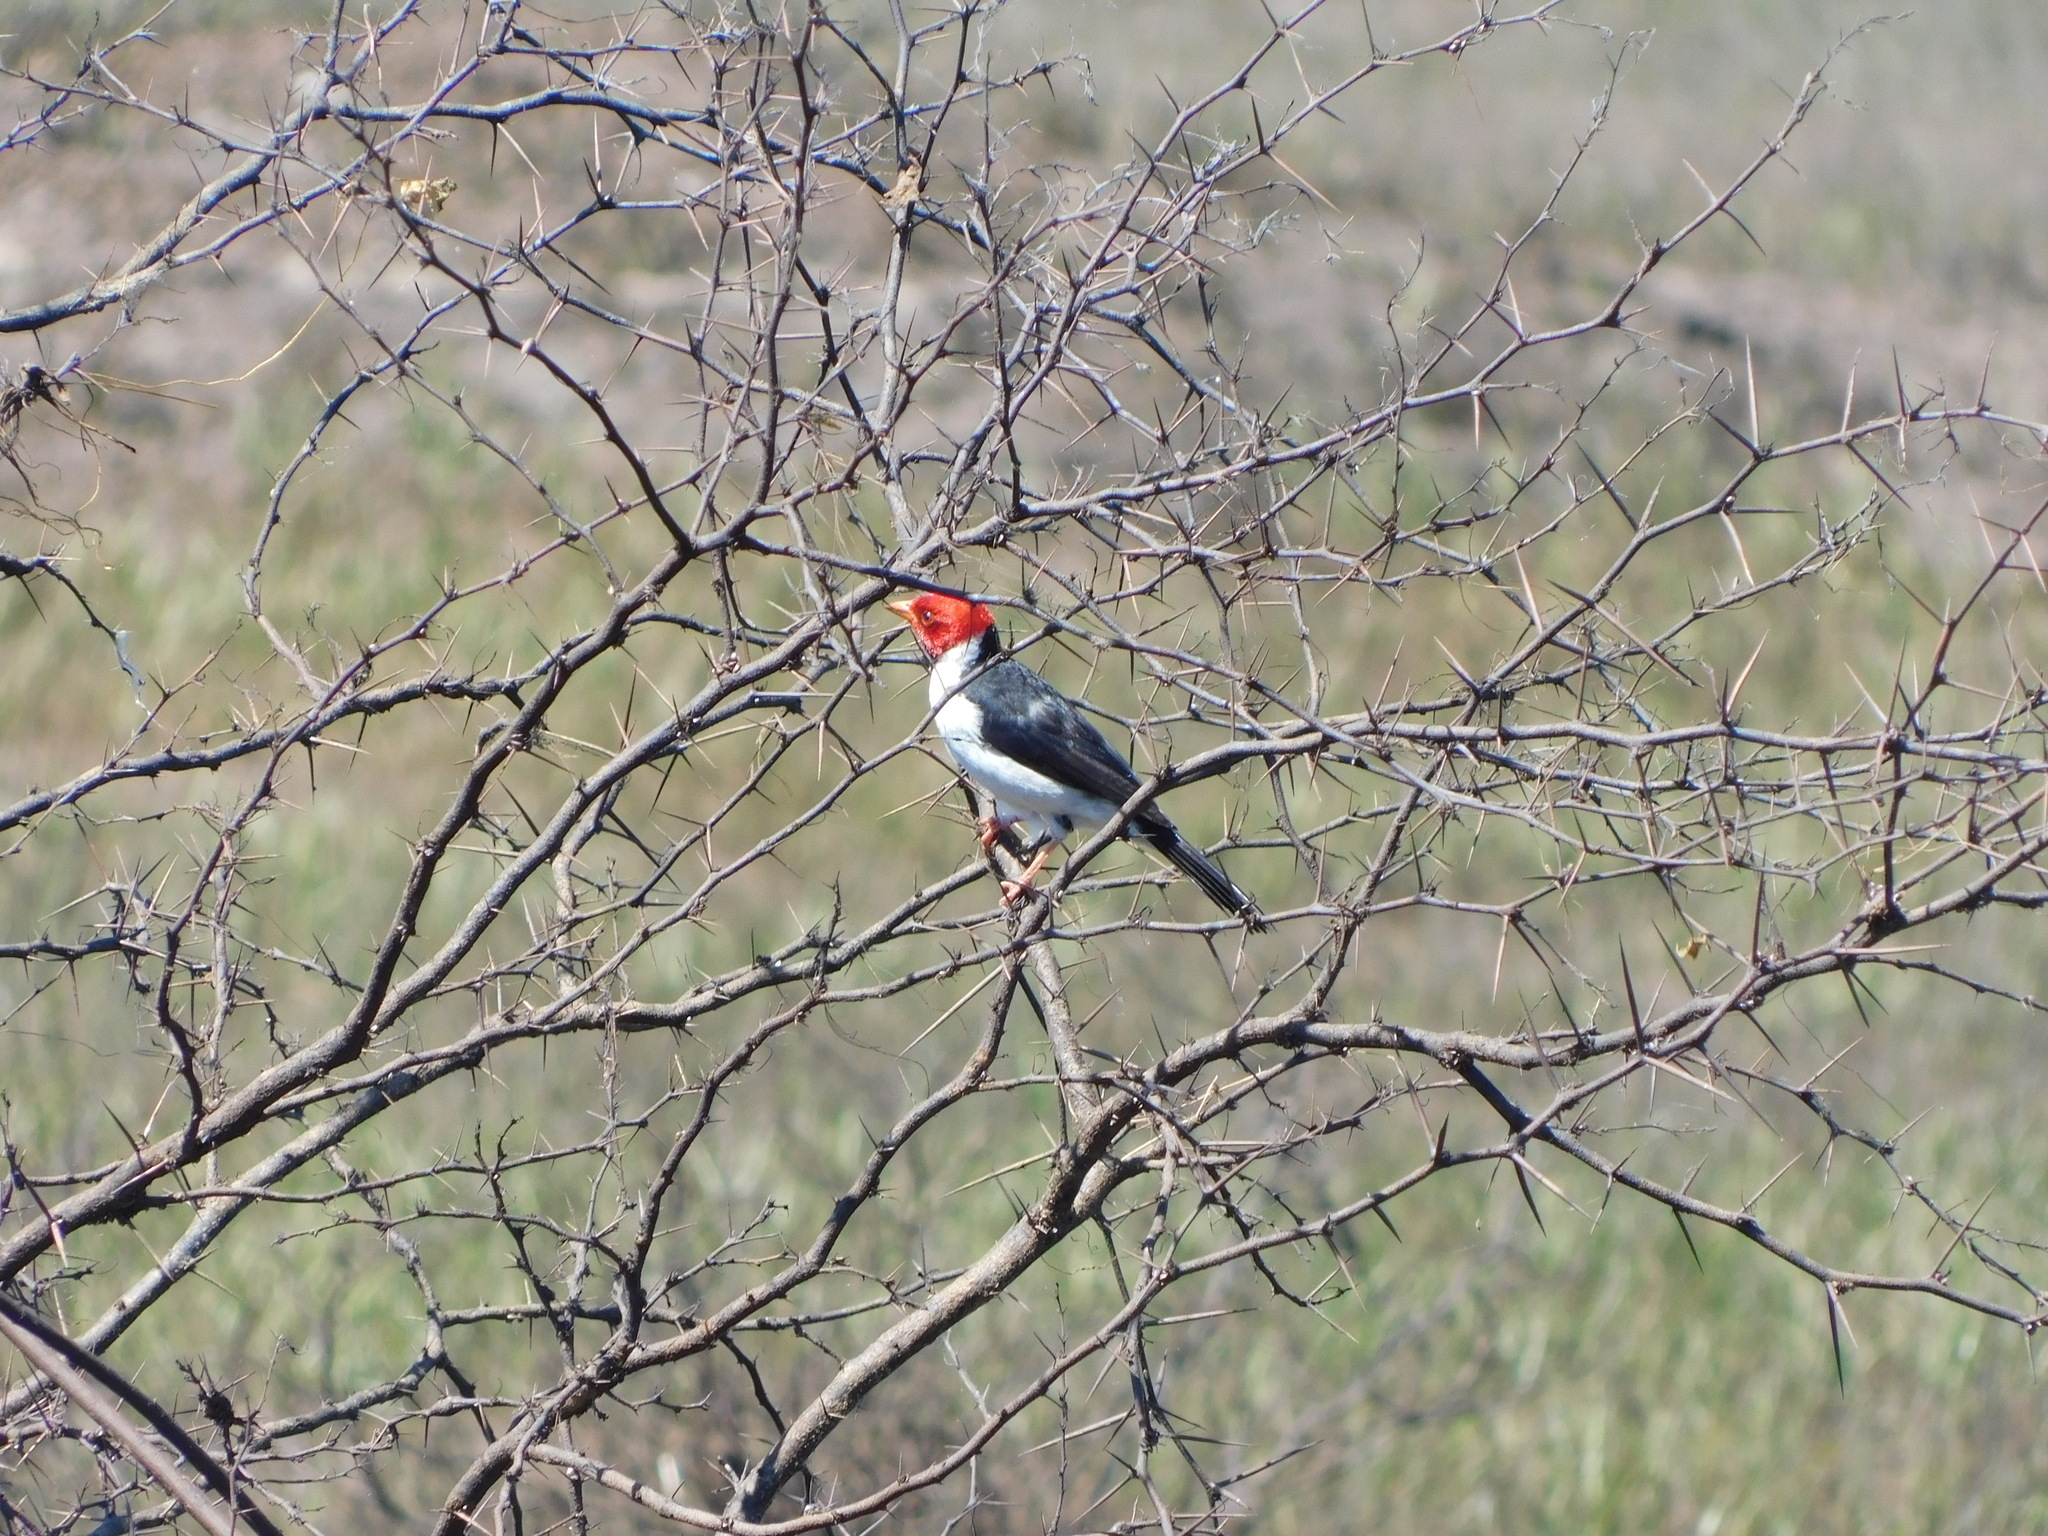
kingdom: Animalia
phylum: Chordata
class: Aves
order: Passeriformes
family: Thraupidae
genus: Paroaria
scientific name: Paroaria capitata
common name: Yellow-billed cardinal
